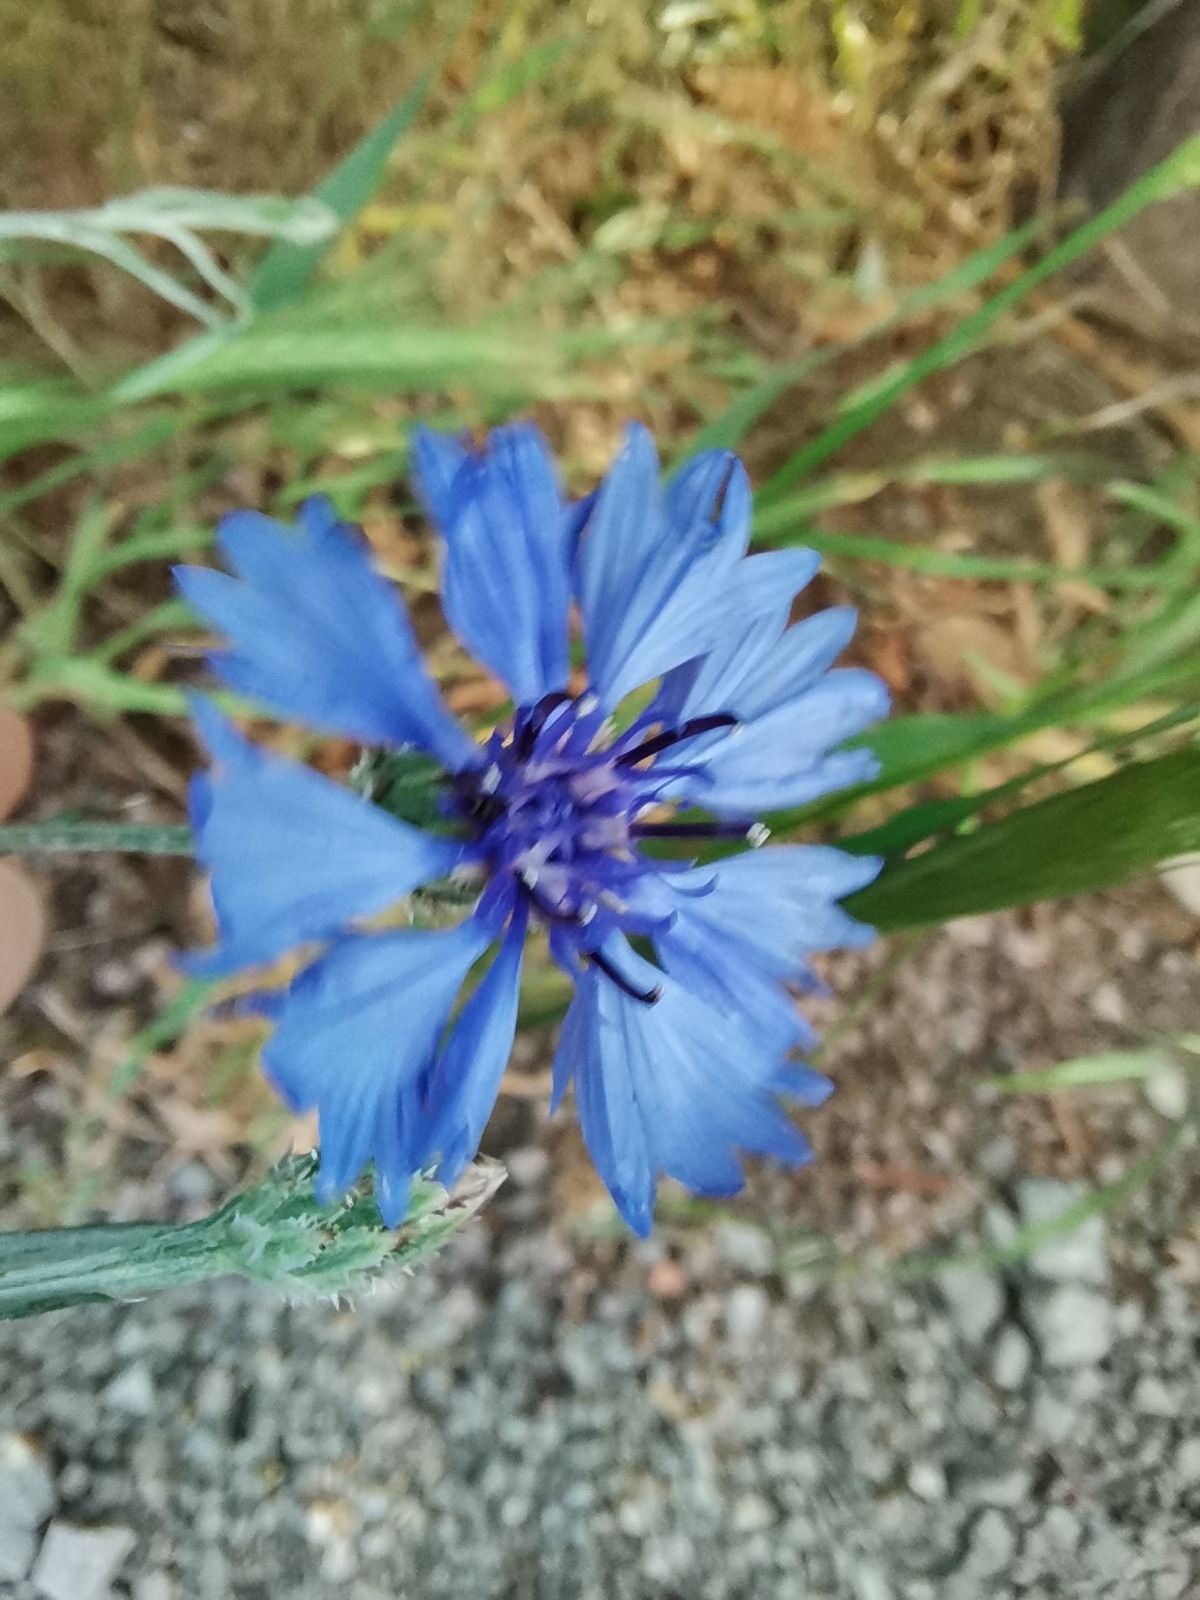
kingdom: Plantae
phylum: Tracheophyta
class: Magnoliopsida
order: Asterales
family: Asteraceae
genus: Centaurea
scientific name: Centaurea cyanus
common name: Cornflower
